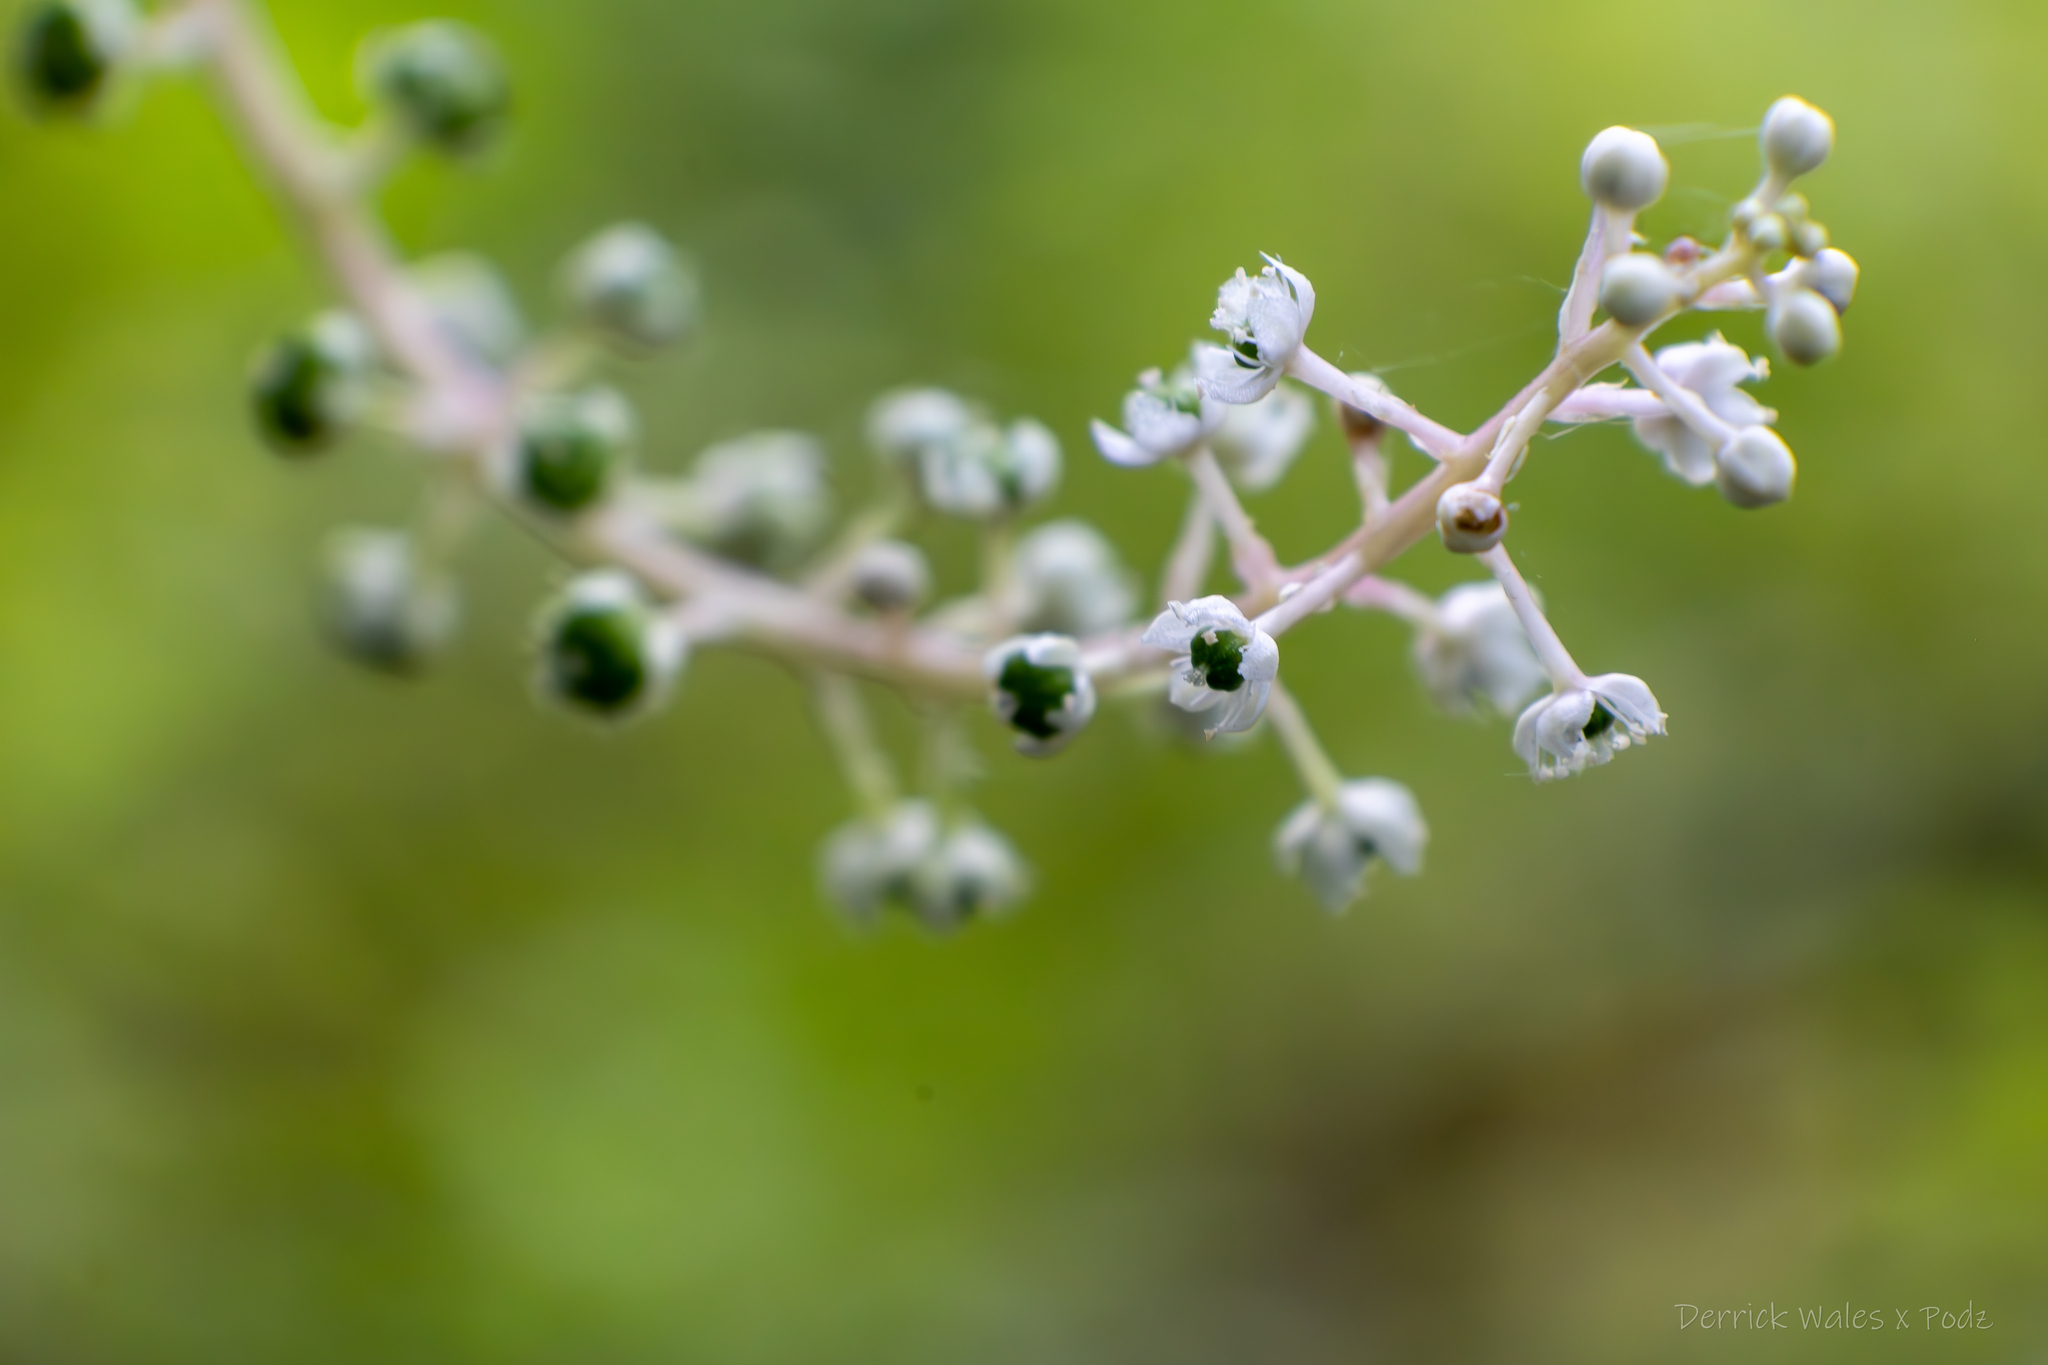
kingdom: Plantae
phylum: Tracheophyta
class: Magnoliopsida
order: Caryophyllales
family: Phytolaccaceae
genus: Phytolacca
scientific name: Phytolacca americana
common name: American pokeweed
